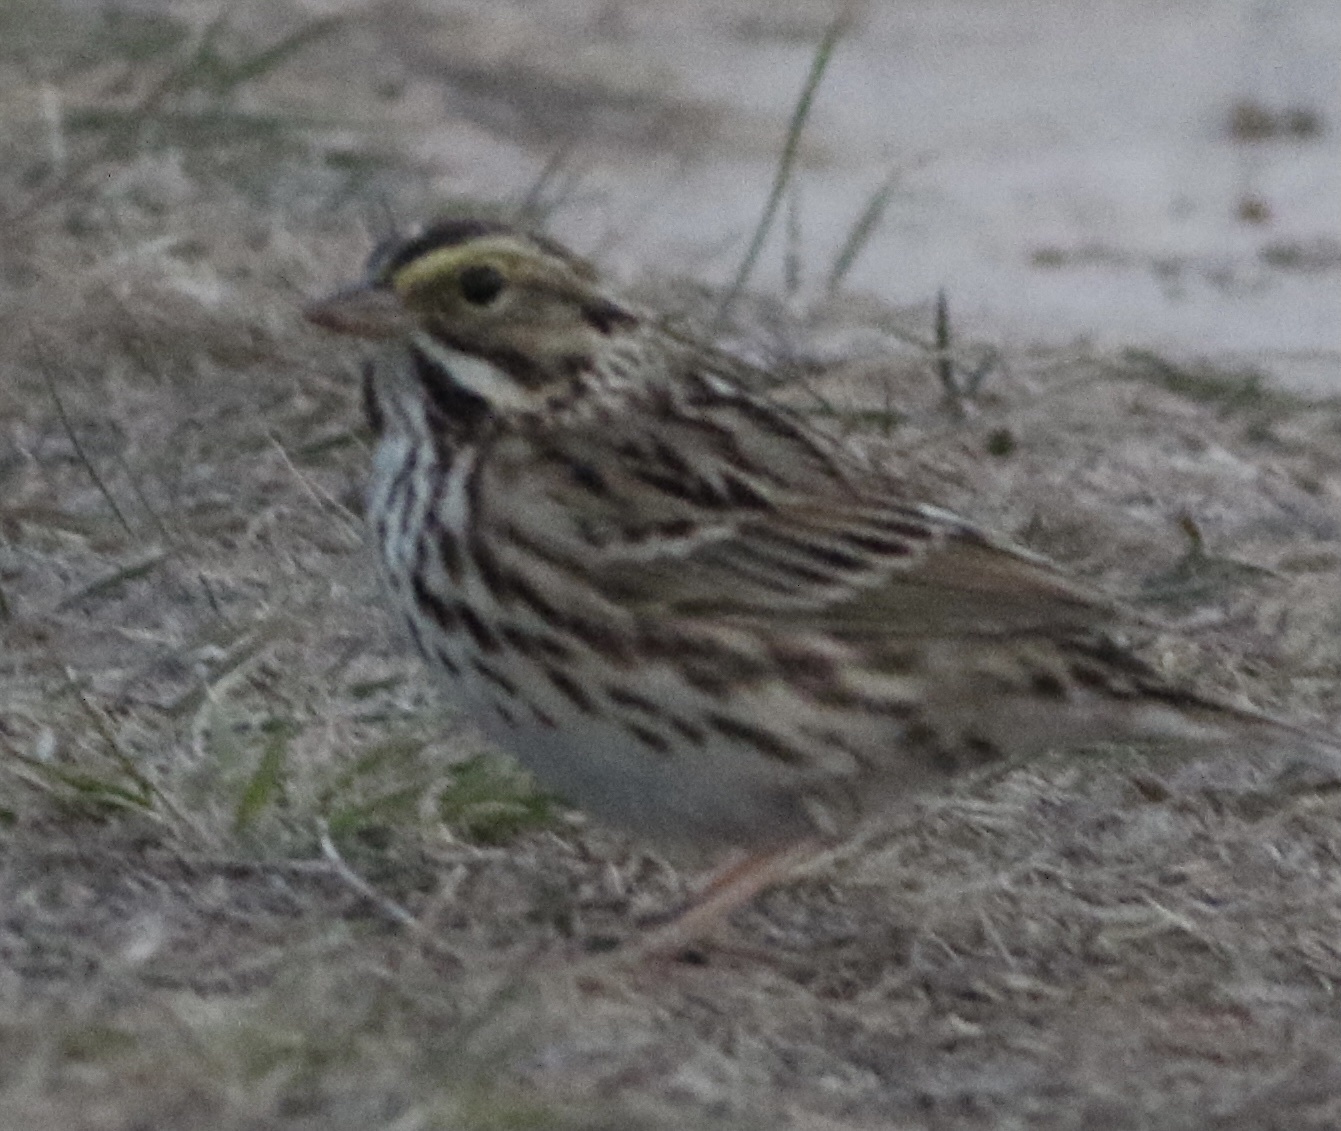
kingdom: Animalia
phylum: Chordata
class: Aves
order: Passeriformes
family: Passerellidae
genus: Passerculus
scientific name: Passerculus sandwichensis
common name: Savannah sparrow
